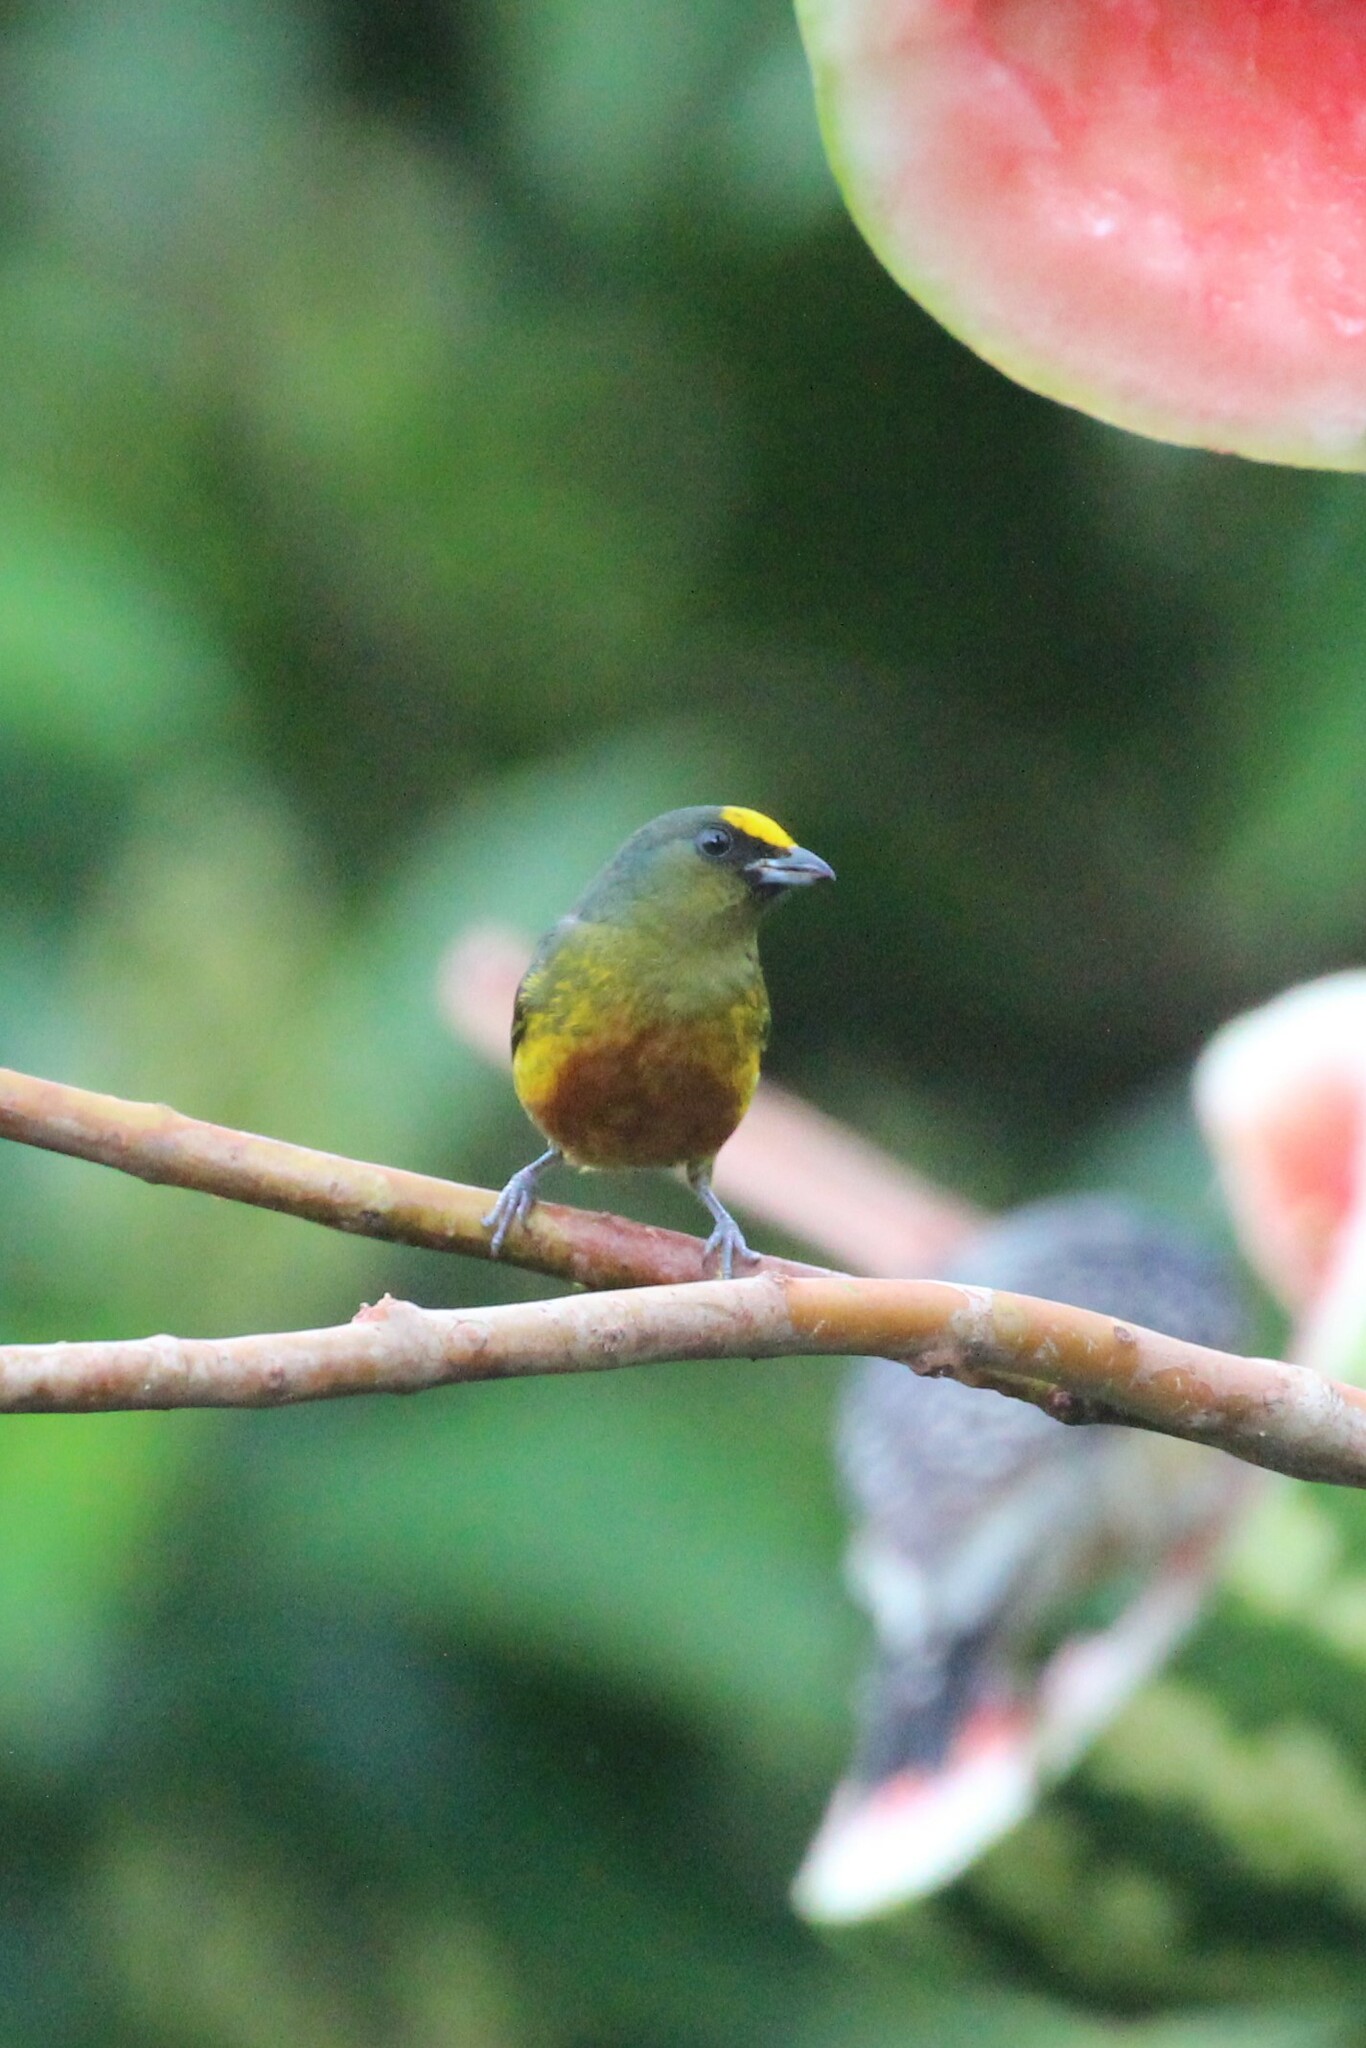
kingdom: Animalia
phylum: Chordata
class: Aves
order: Passeriformes
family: Fringillidae
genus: Euphonia
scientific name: Euphonia gouldi
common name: Olive-backed euphonia
